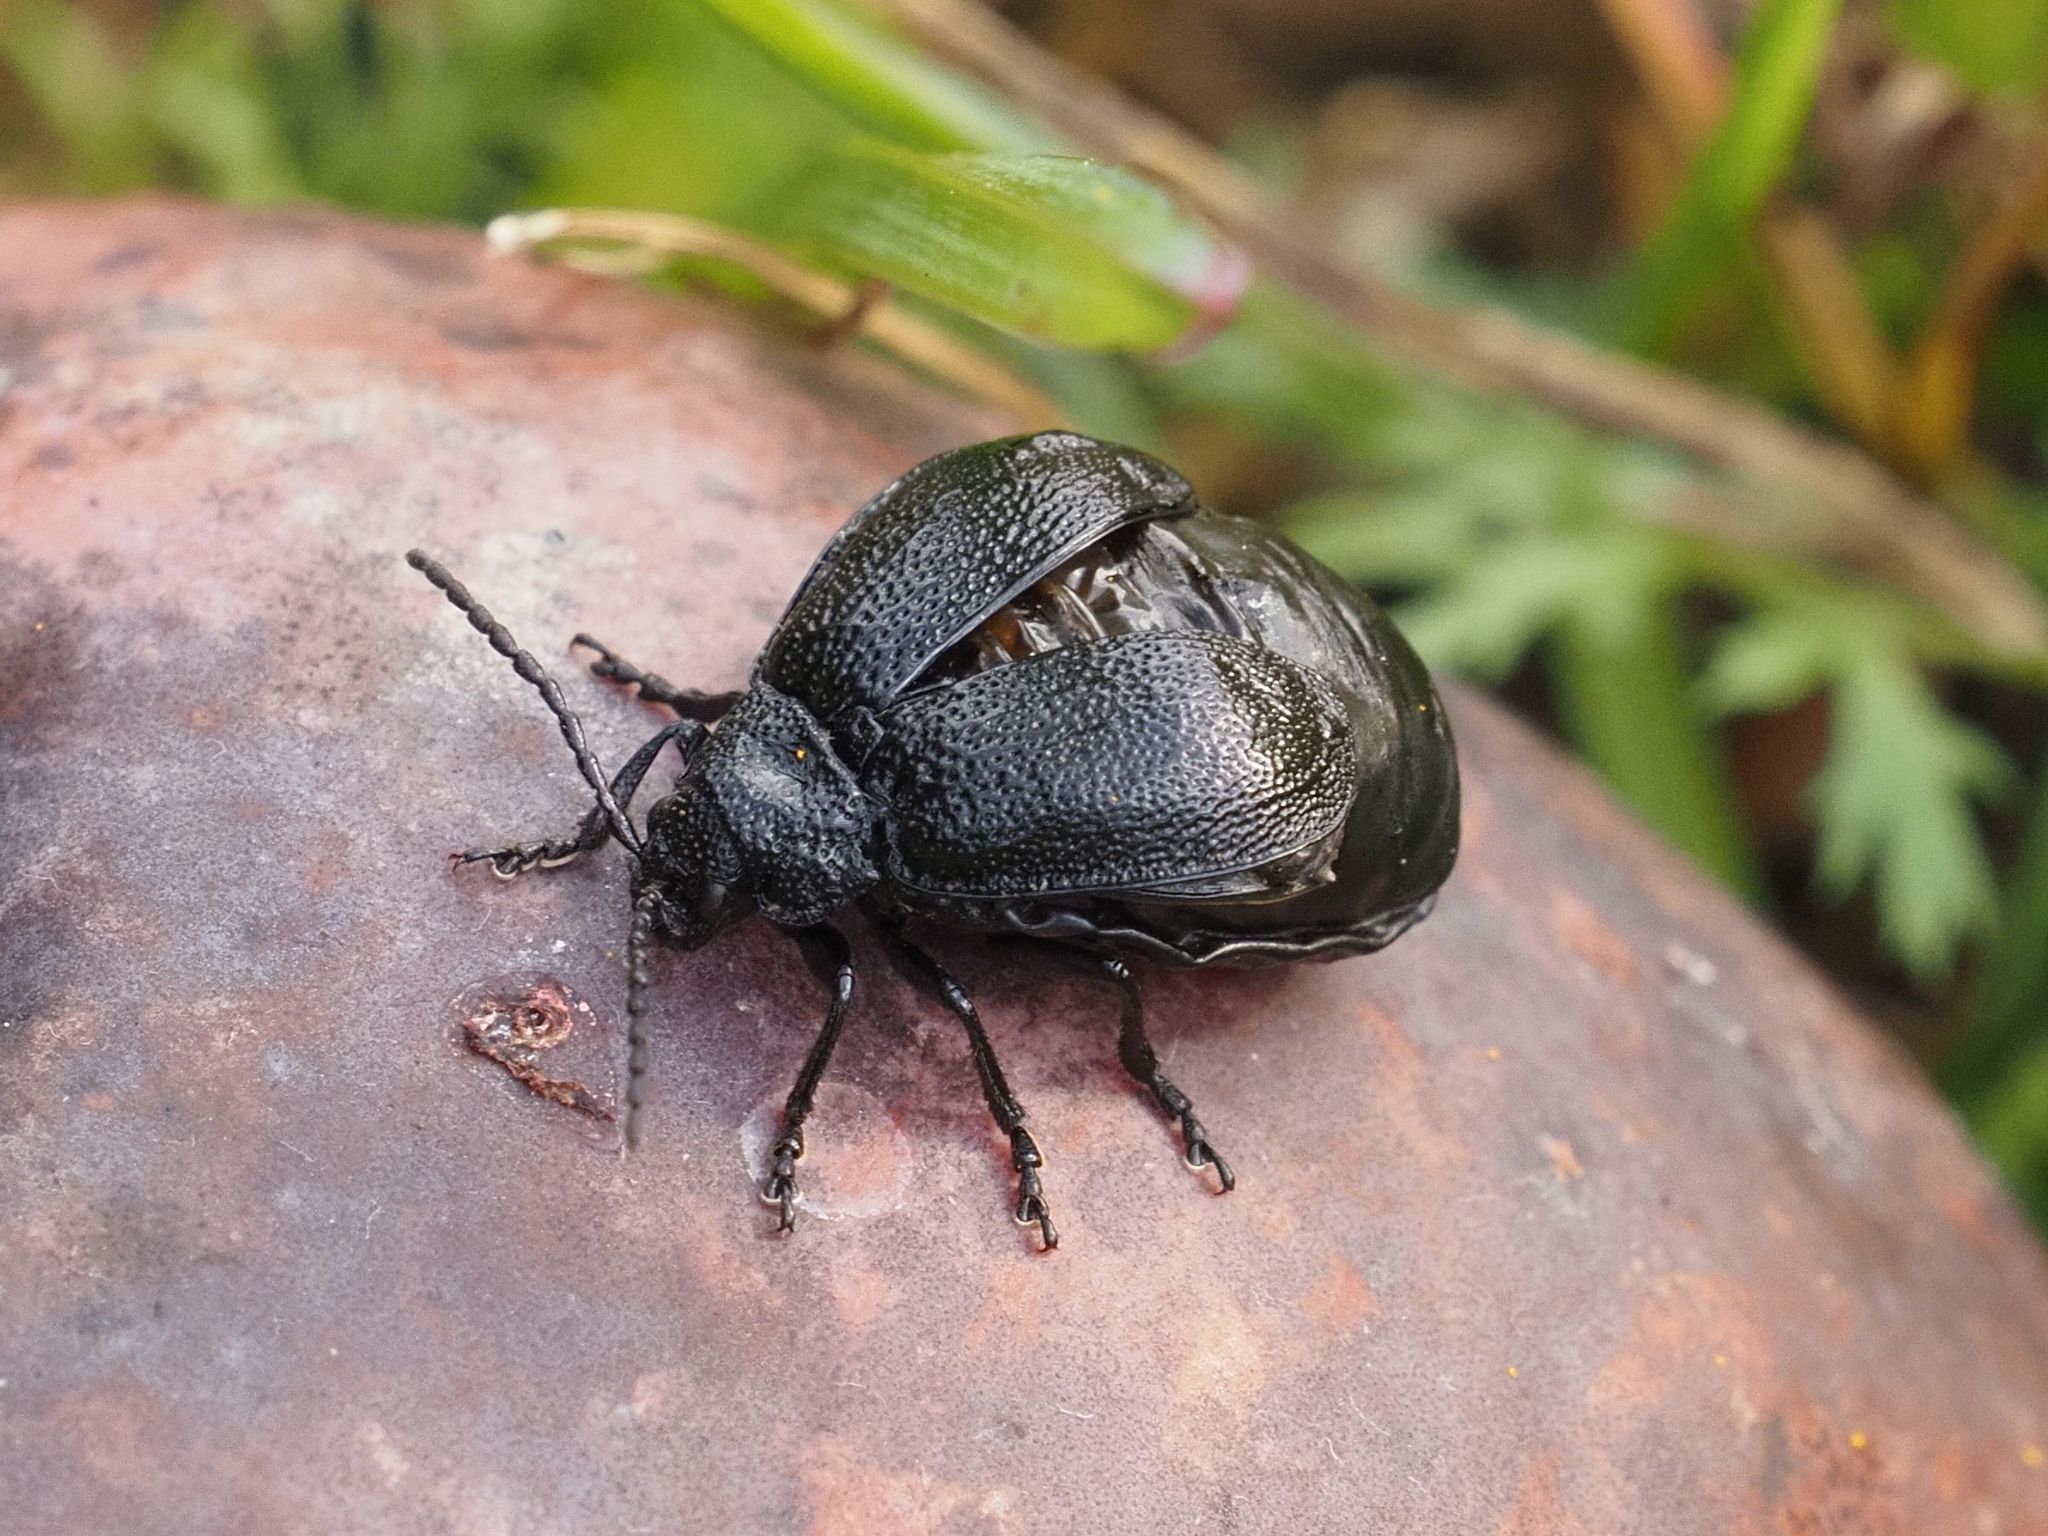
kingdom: Animalia
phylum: Arthropoda
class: Insecta
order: Coleoptera
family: Chrysomelidae
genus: Galeruca
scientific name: Galeruca tanaceti
